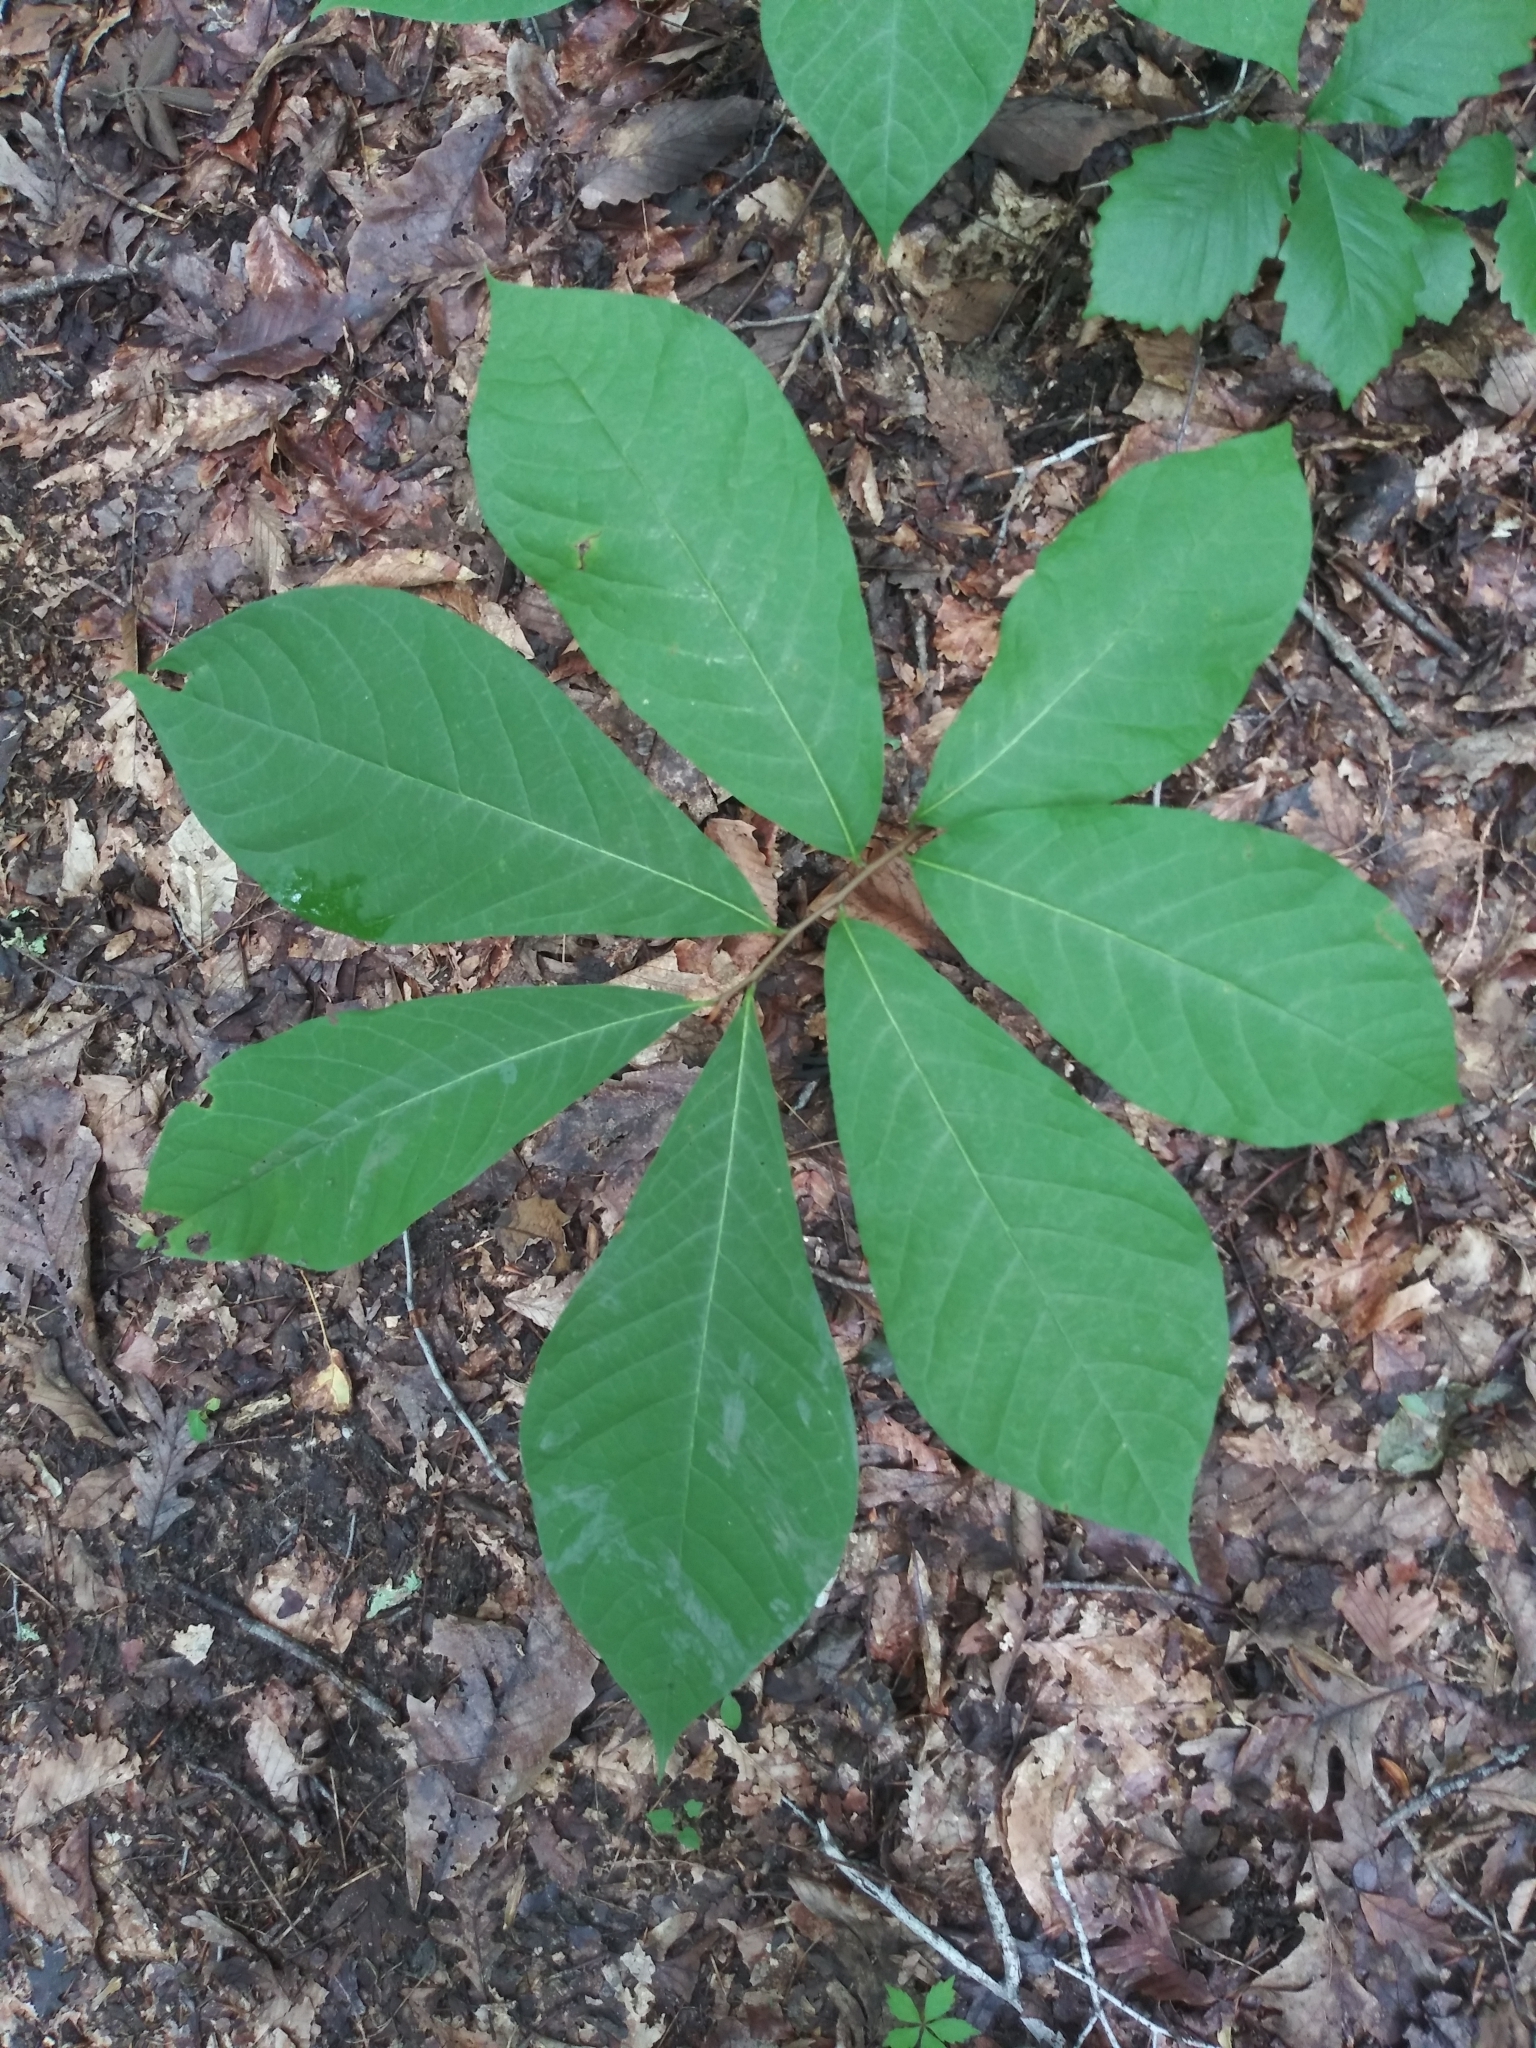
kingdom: Plantae
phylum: Tracheophyta
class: Magnoliopsida
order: Magnoliales
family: Annonaceae
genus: Asimina
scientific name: Asimina triloba
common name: Dog-banana
